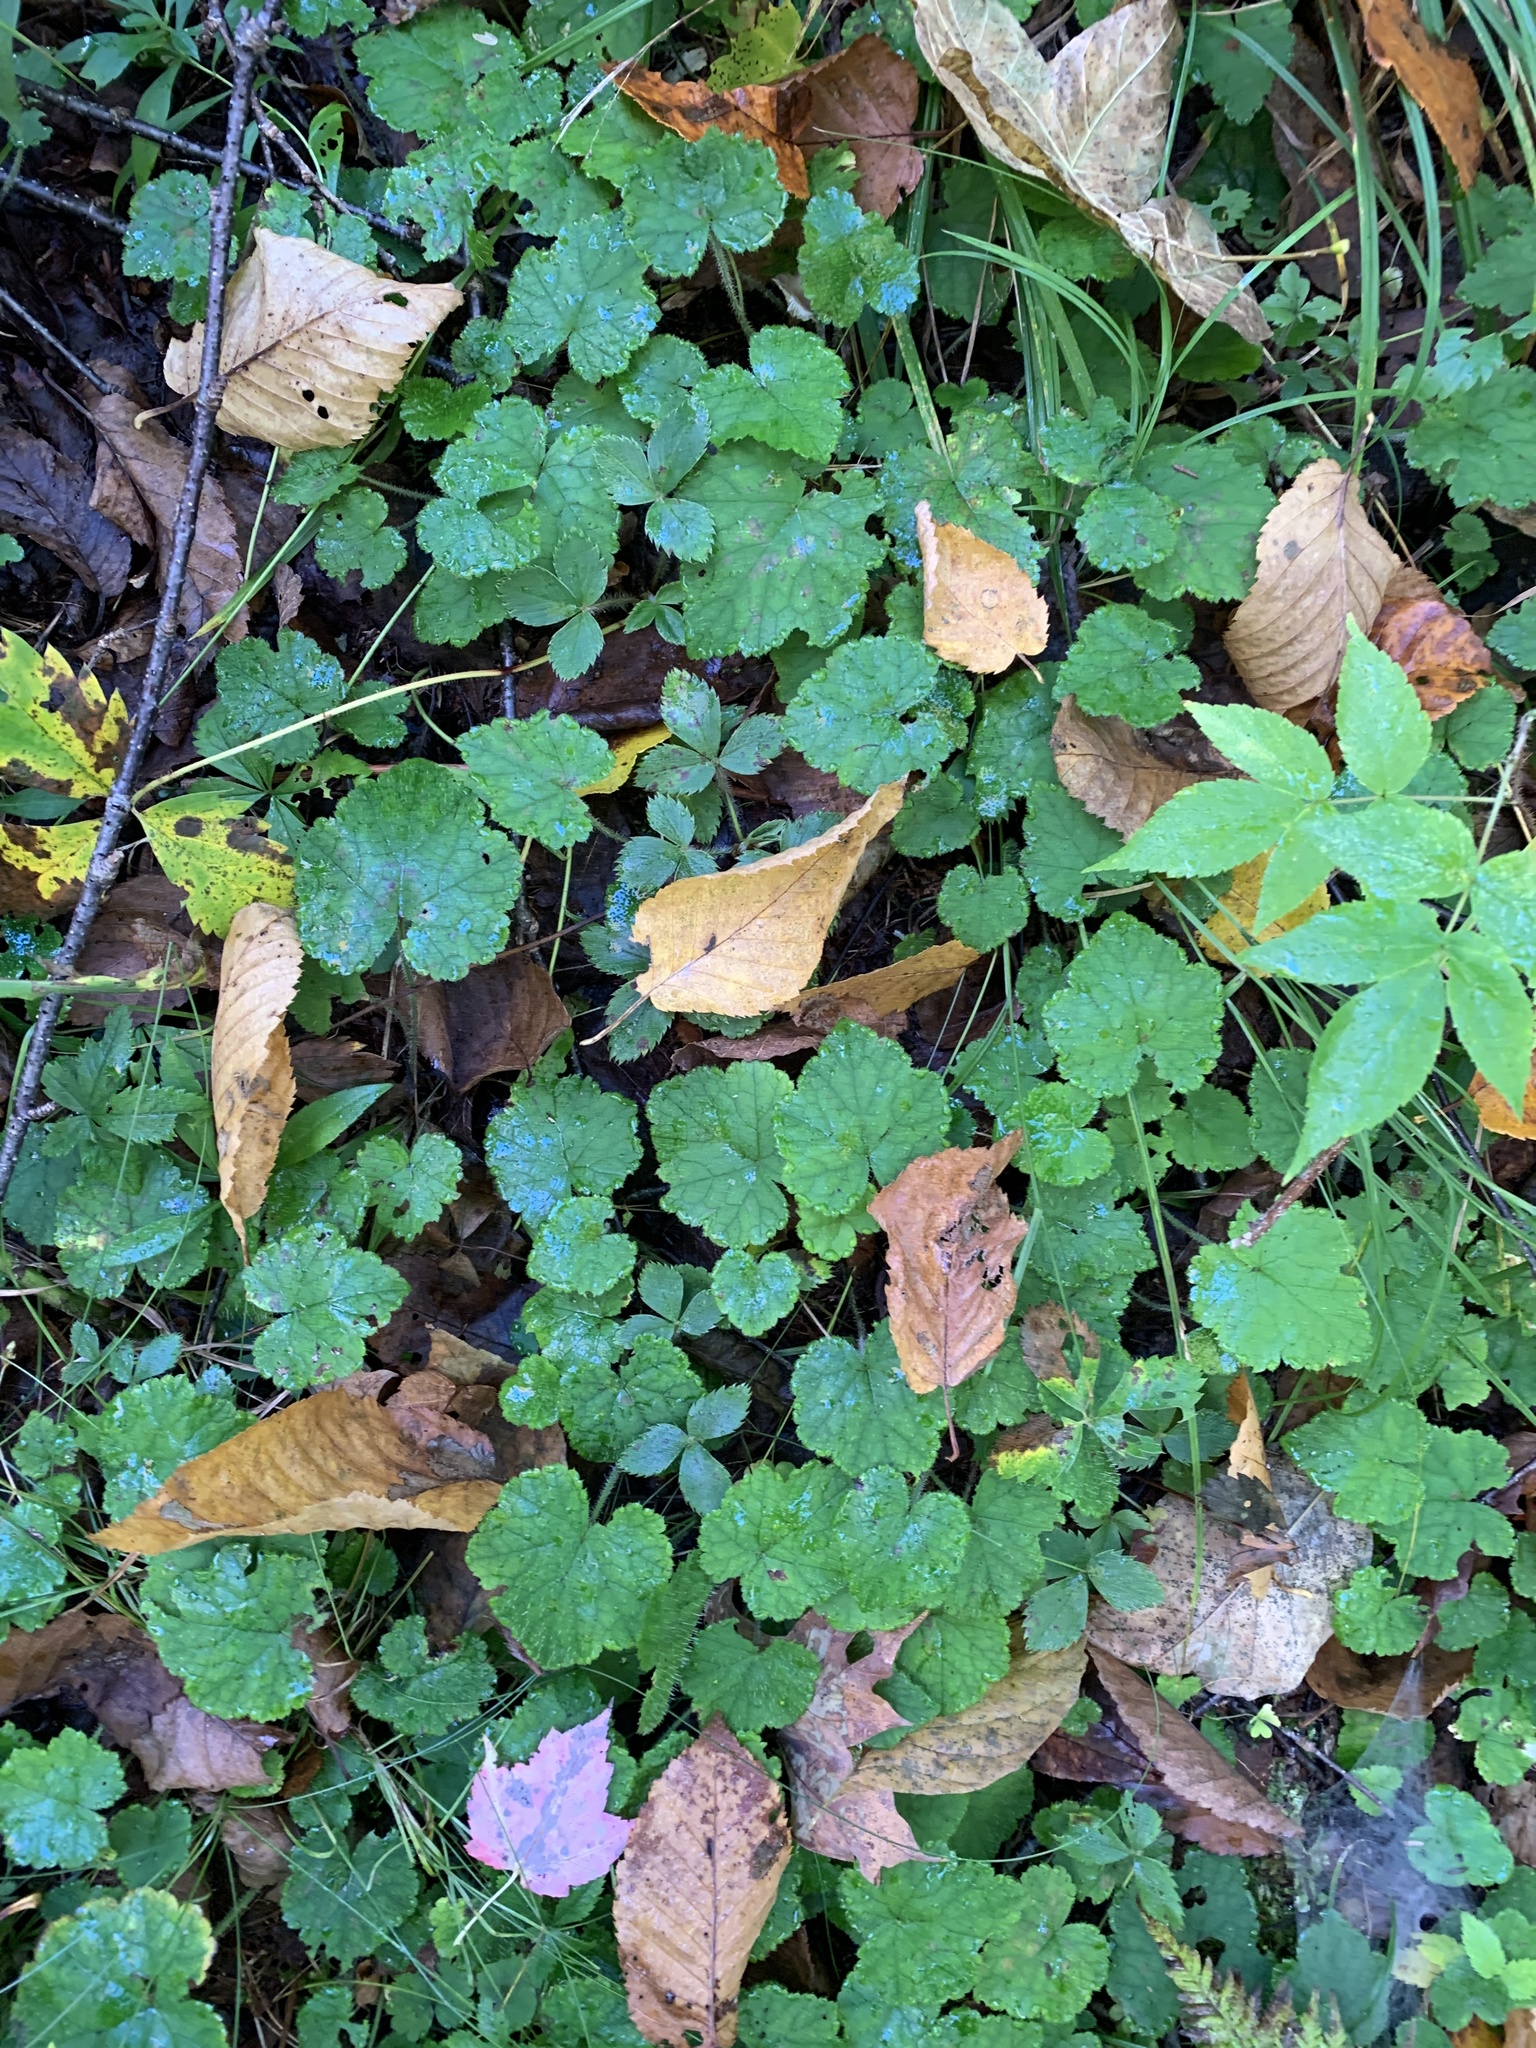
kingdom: Plantae
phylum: Tracheophyta
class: Magnoliopsida
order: Saxifragales
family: Saxifragaceae
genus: Tiarella
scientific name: Tiarella stolonifera
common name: Stoloniferous foamflower
